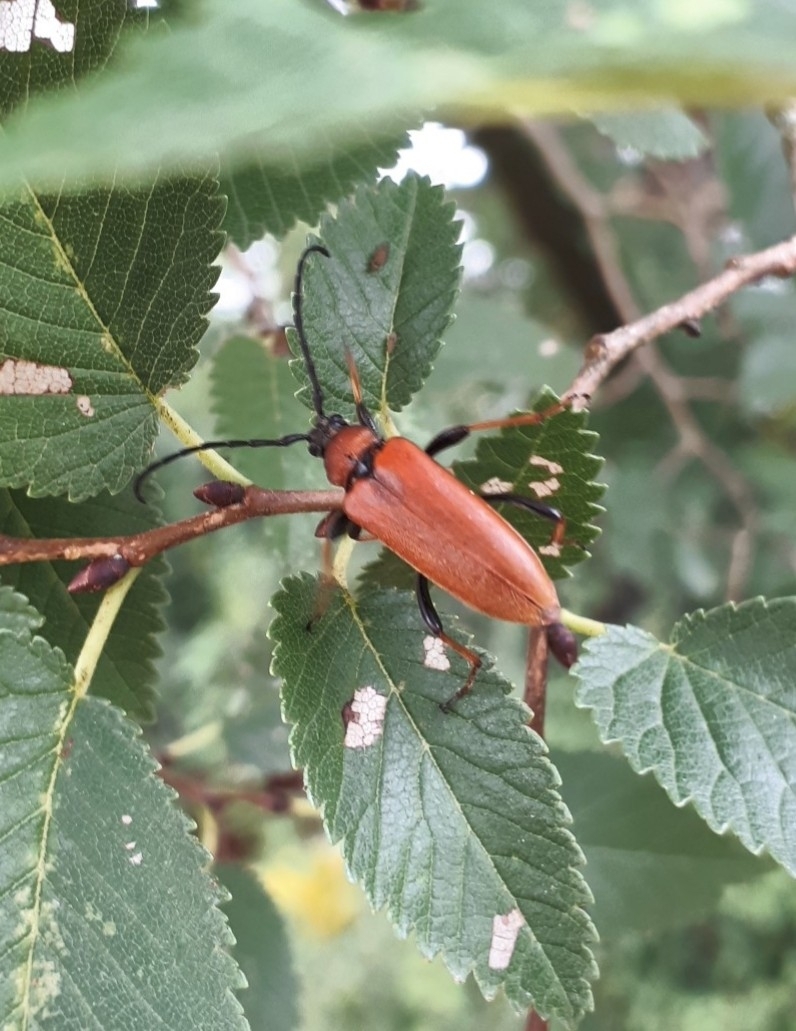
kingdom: Animalia
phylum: Arthropoda
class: Insecta
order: Coleoptera
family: Cerambycidae
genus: Stictoleptura
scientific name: Stictoleptura rubra
